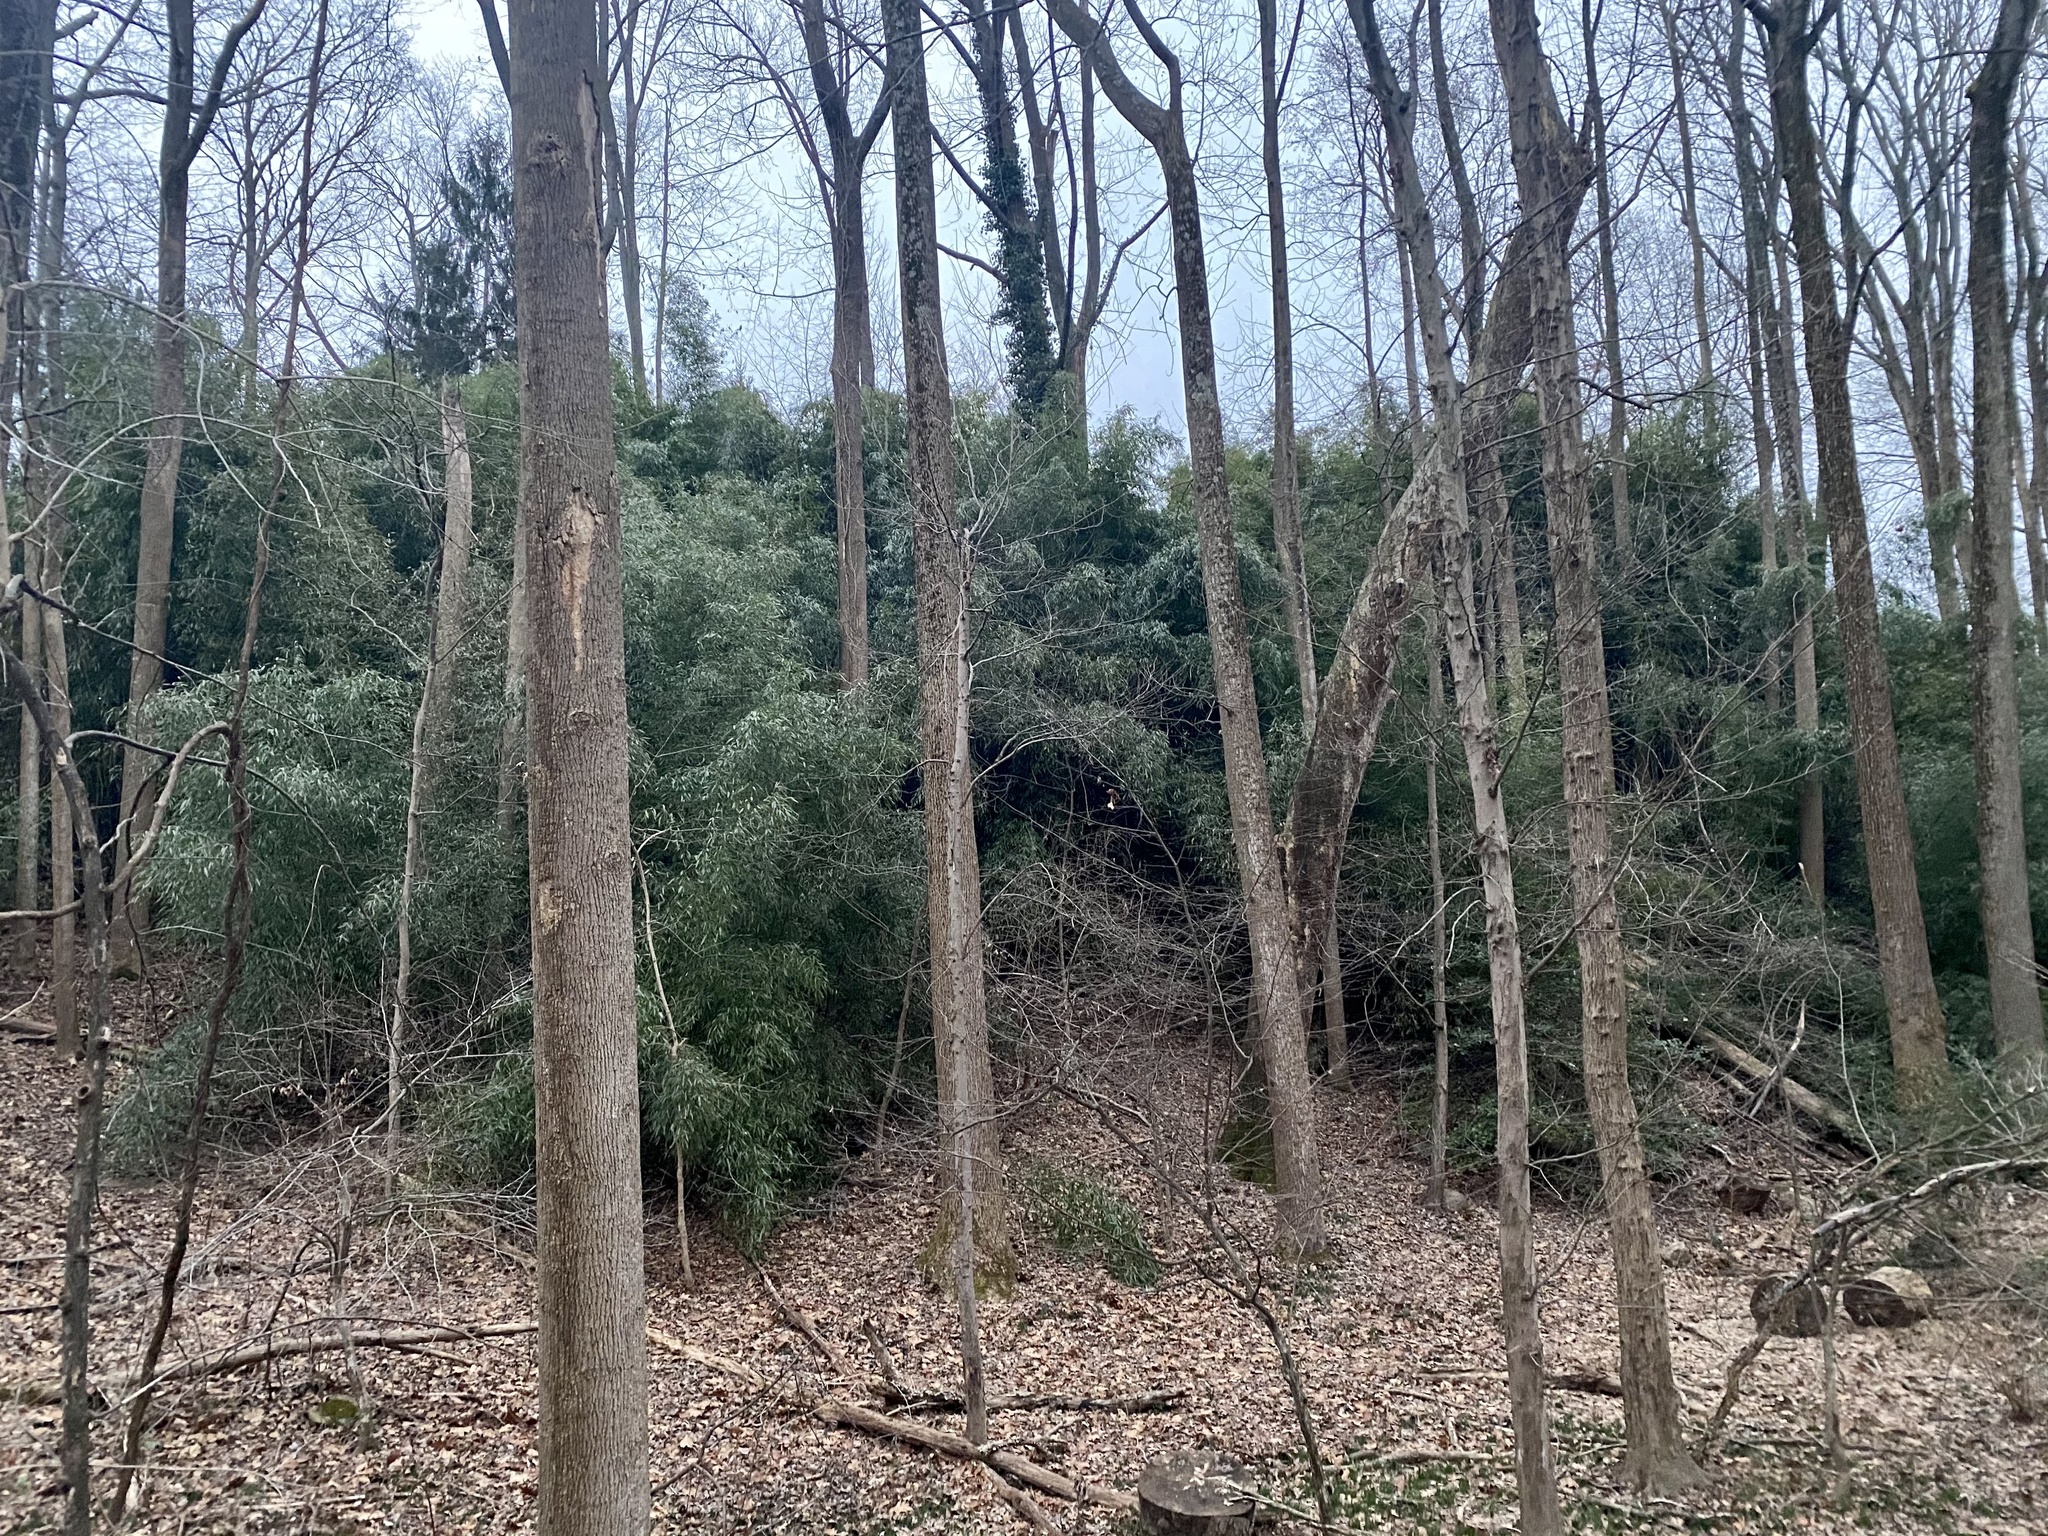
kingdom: Plantae
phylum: Tracheophyta
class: Liliopsida
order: Poales
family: Poaceae
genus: Phyllostachys
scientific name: Phyllostachys aureosulcata
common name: Yellow groove bamboo
